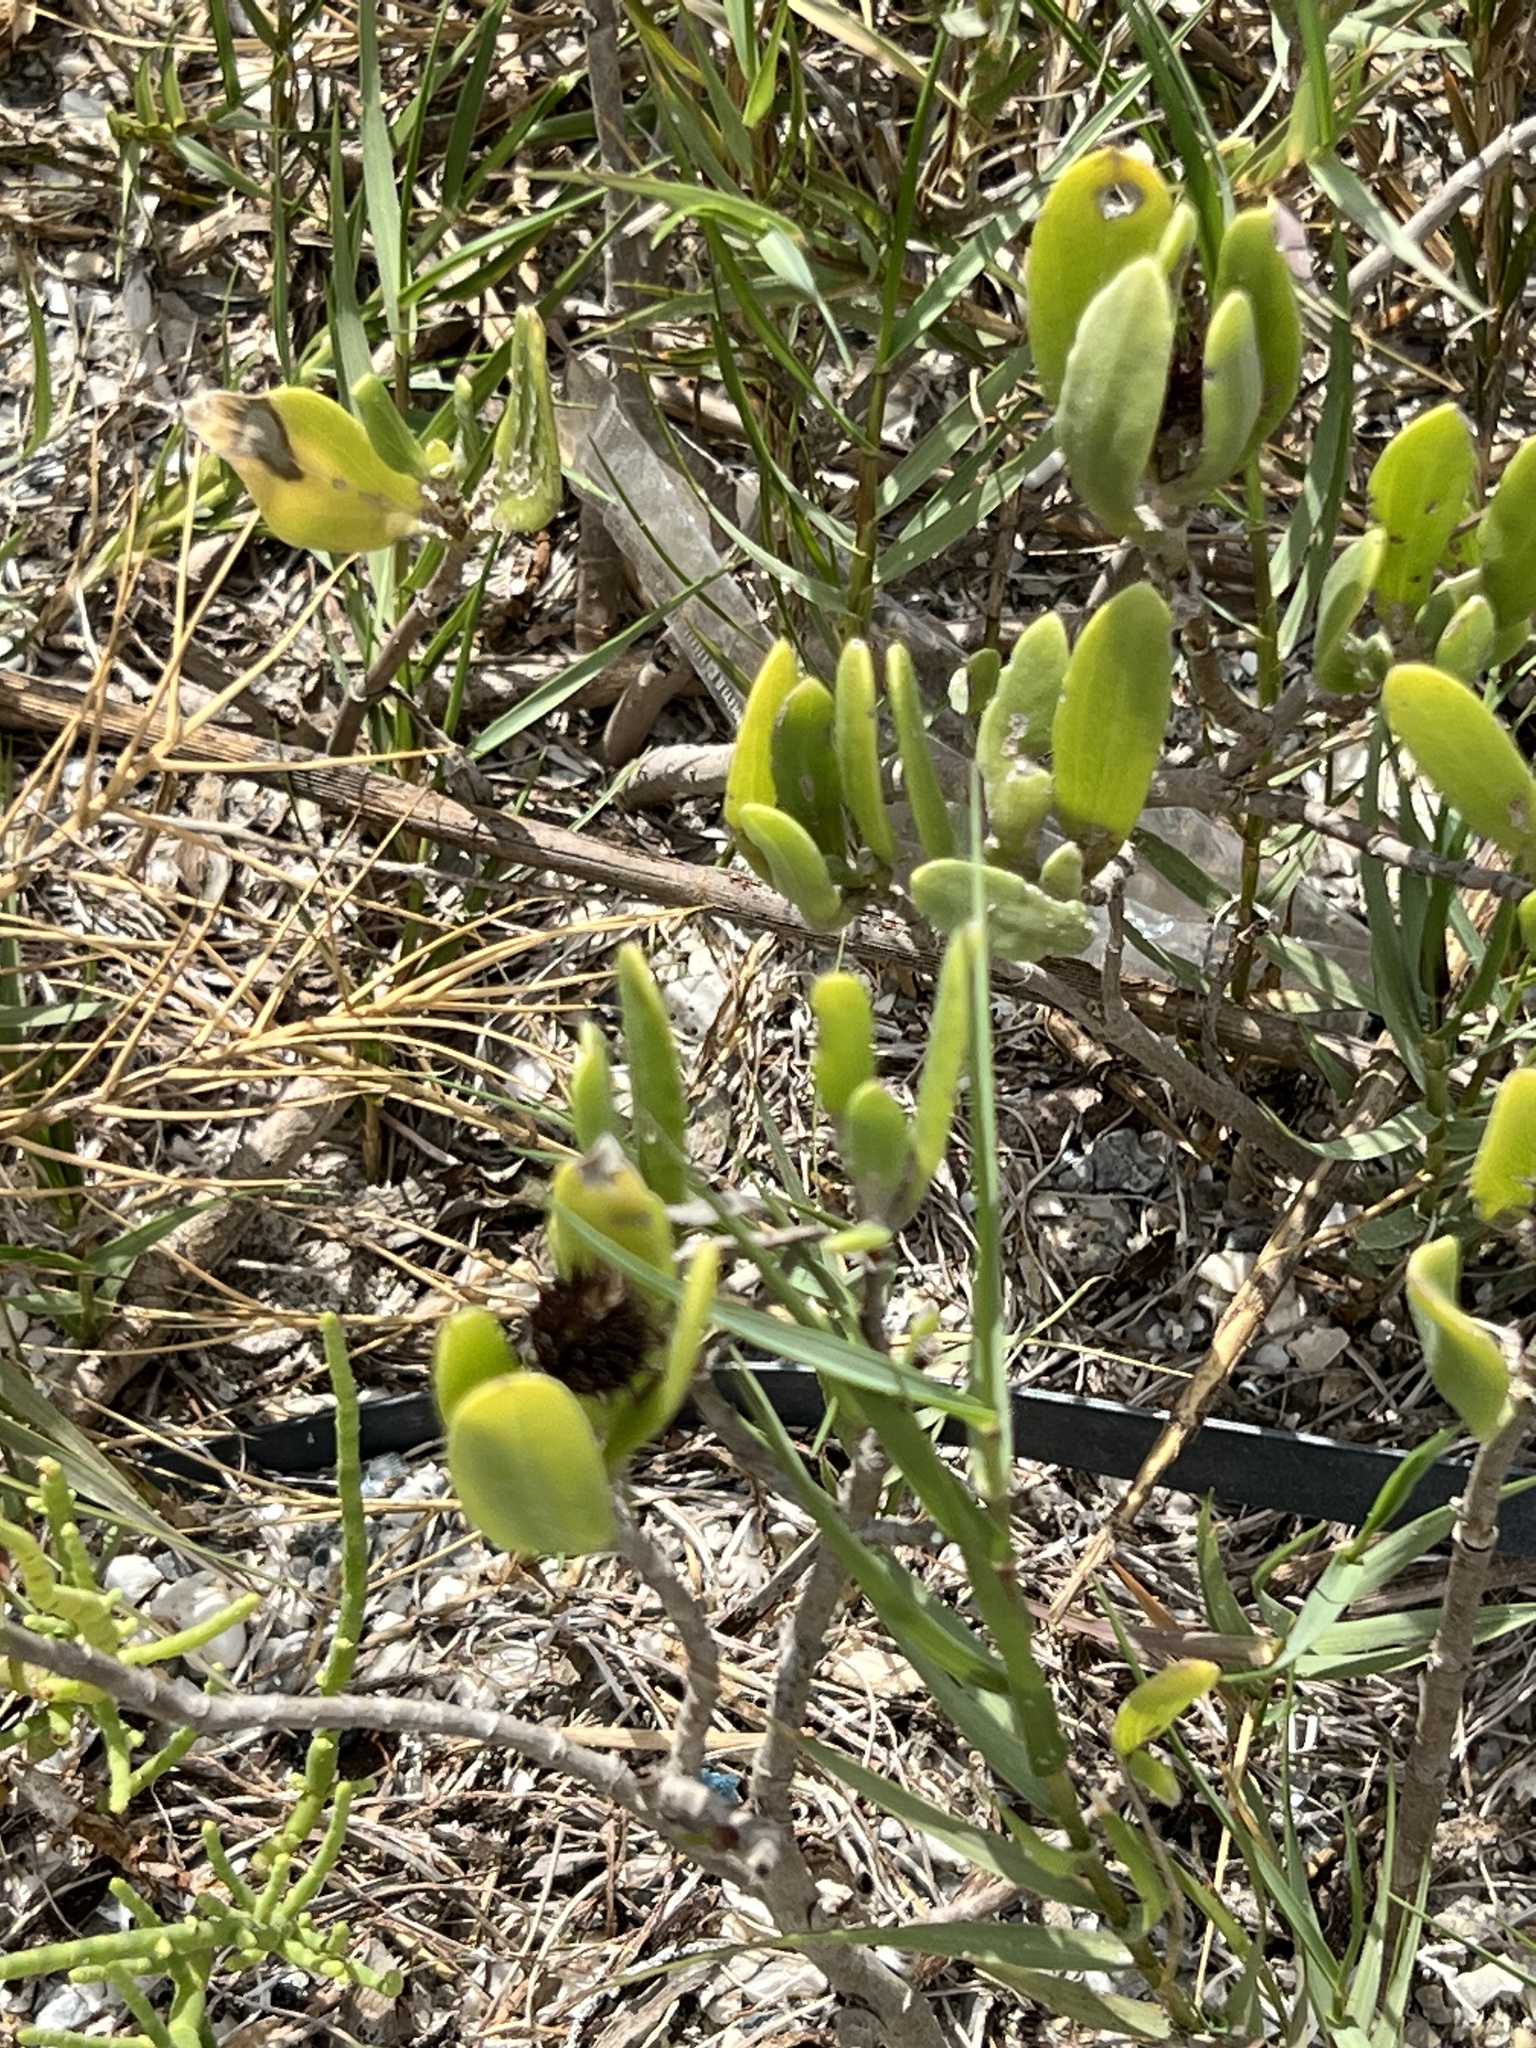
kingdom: Plantae
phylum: Tracheophyta
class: Magnoliopsida
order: Asterales
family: Asteraceae
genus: Borrichia
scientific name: Borrichia frutescens
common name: Sea oxeye
